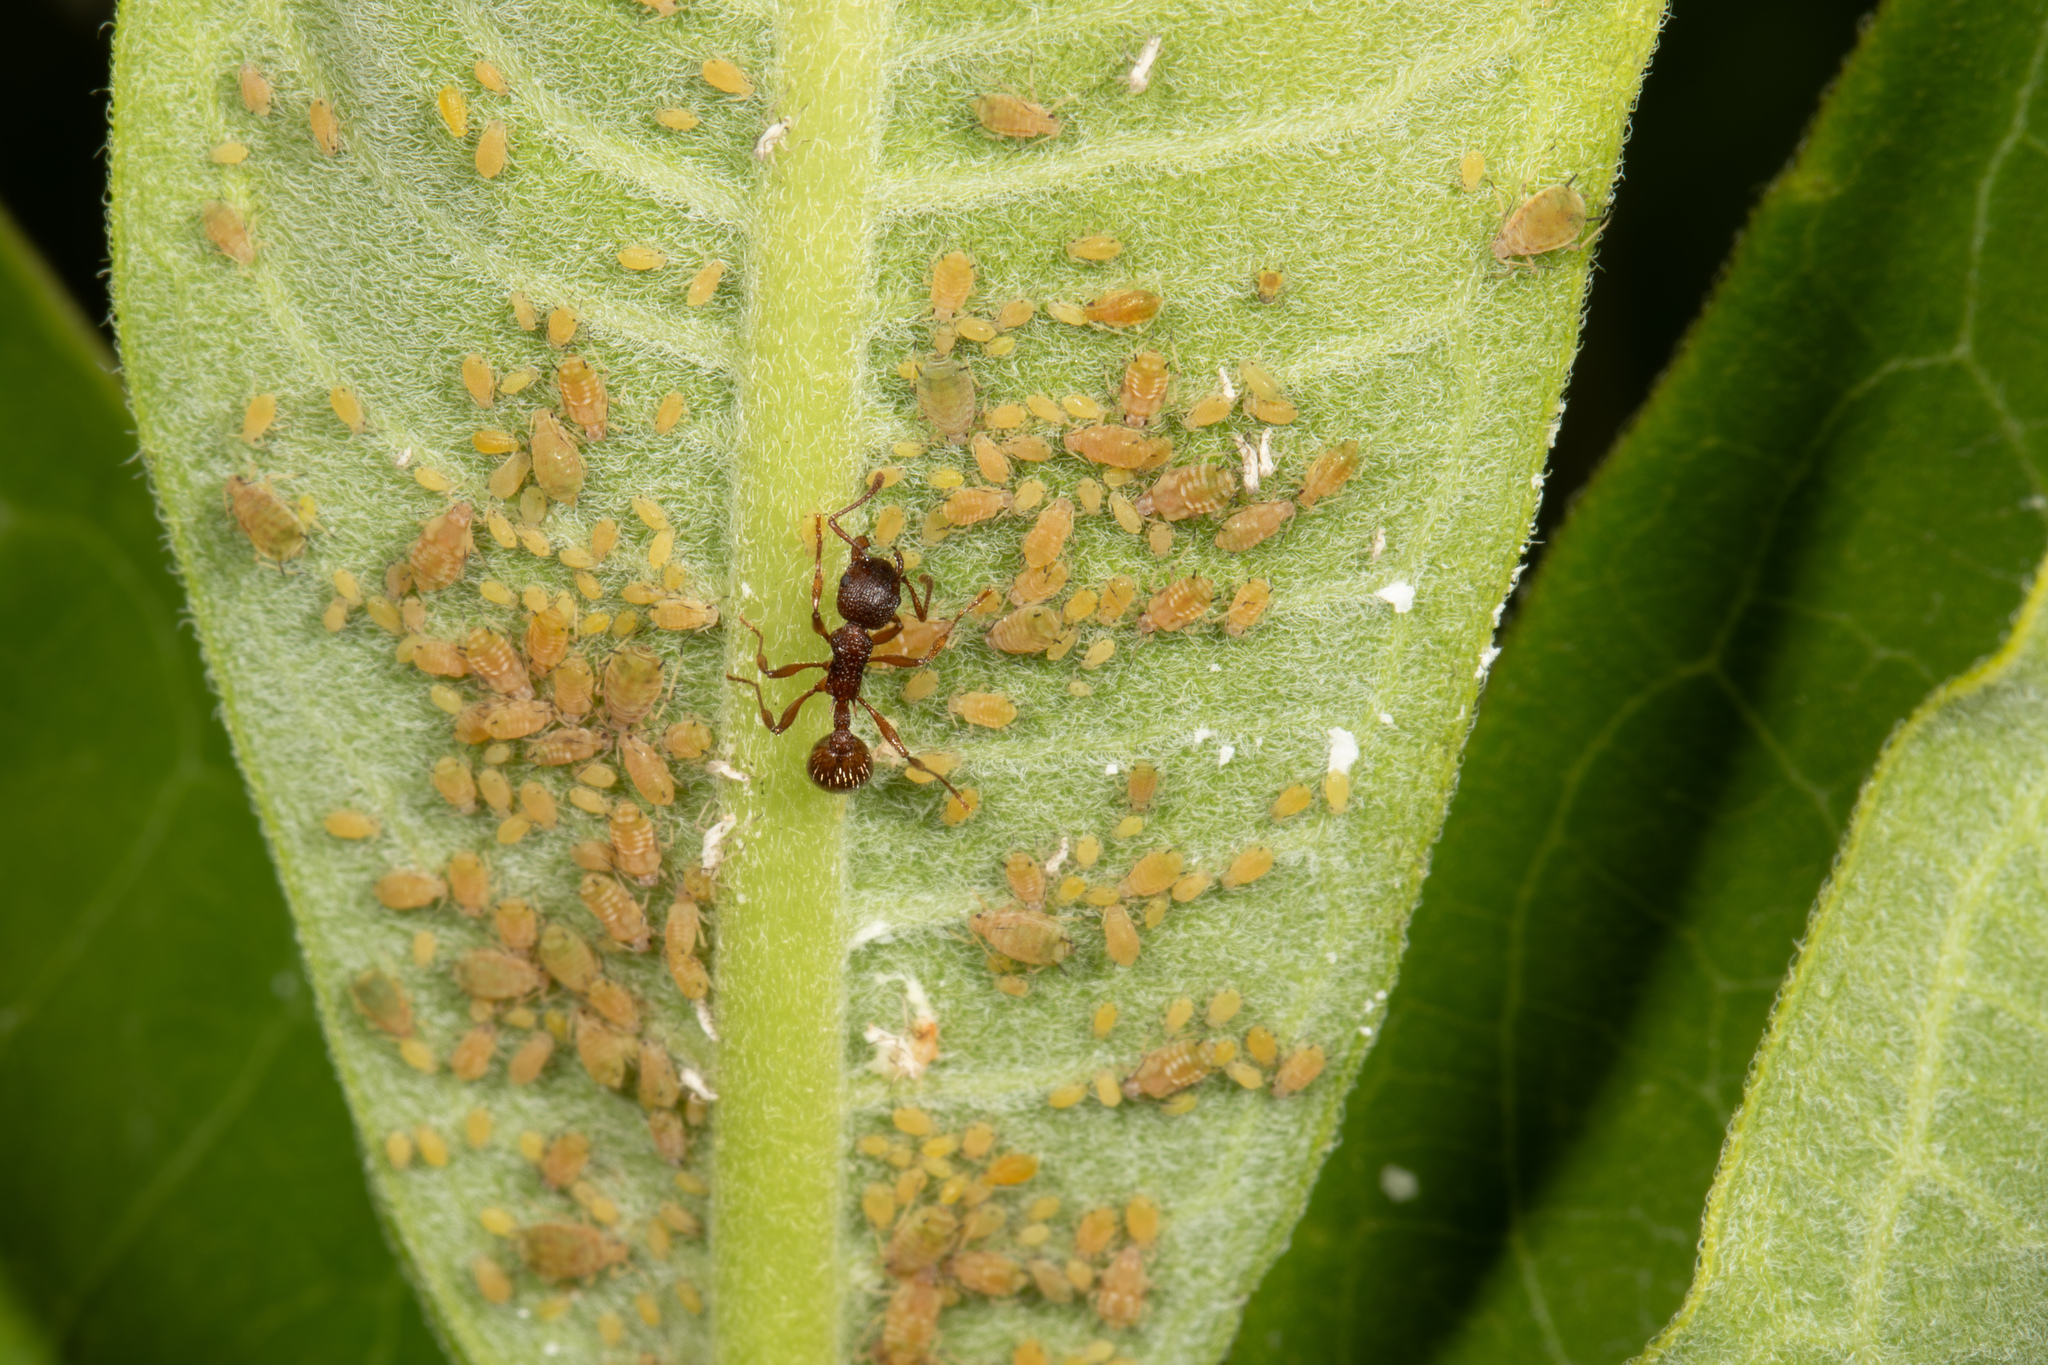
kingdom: Animalia
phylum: Arthropoda
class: Insecta
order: Hymenoptera
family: Formicidae
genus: Myrmica
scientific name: Myrmica
